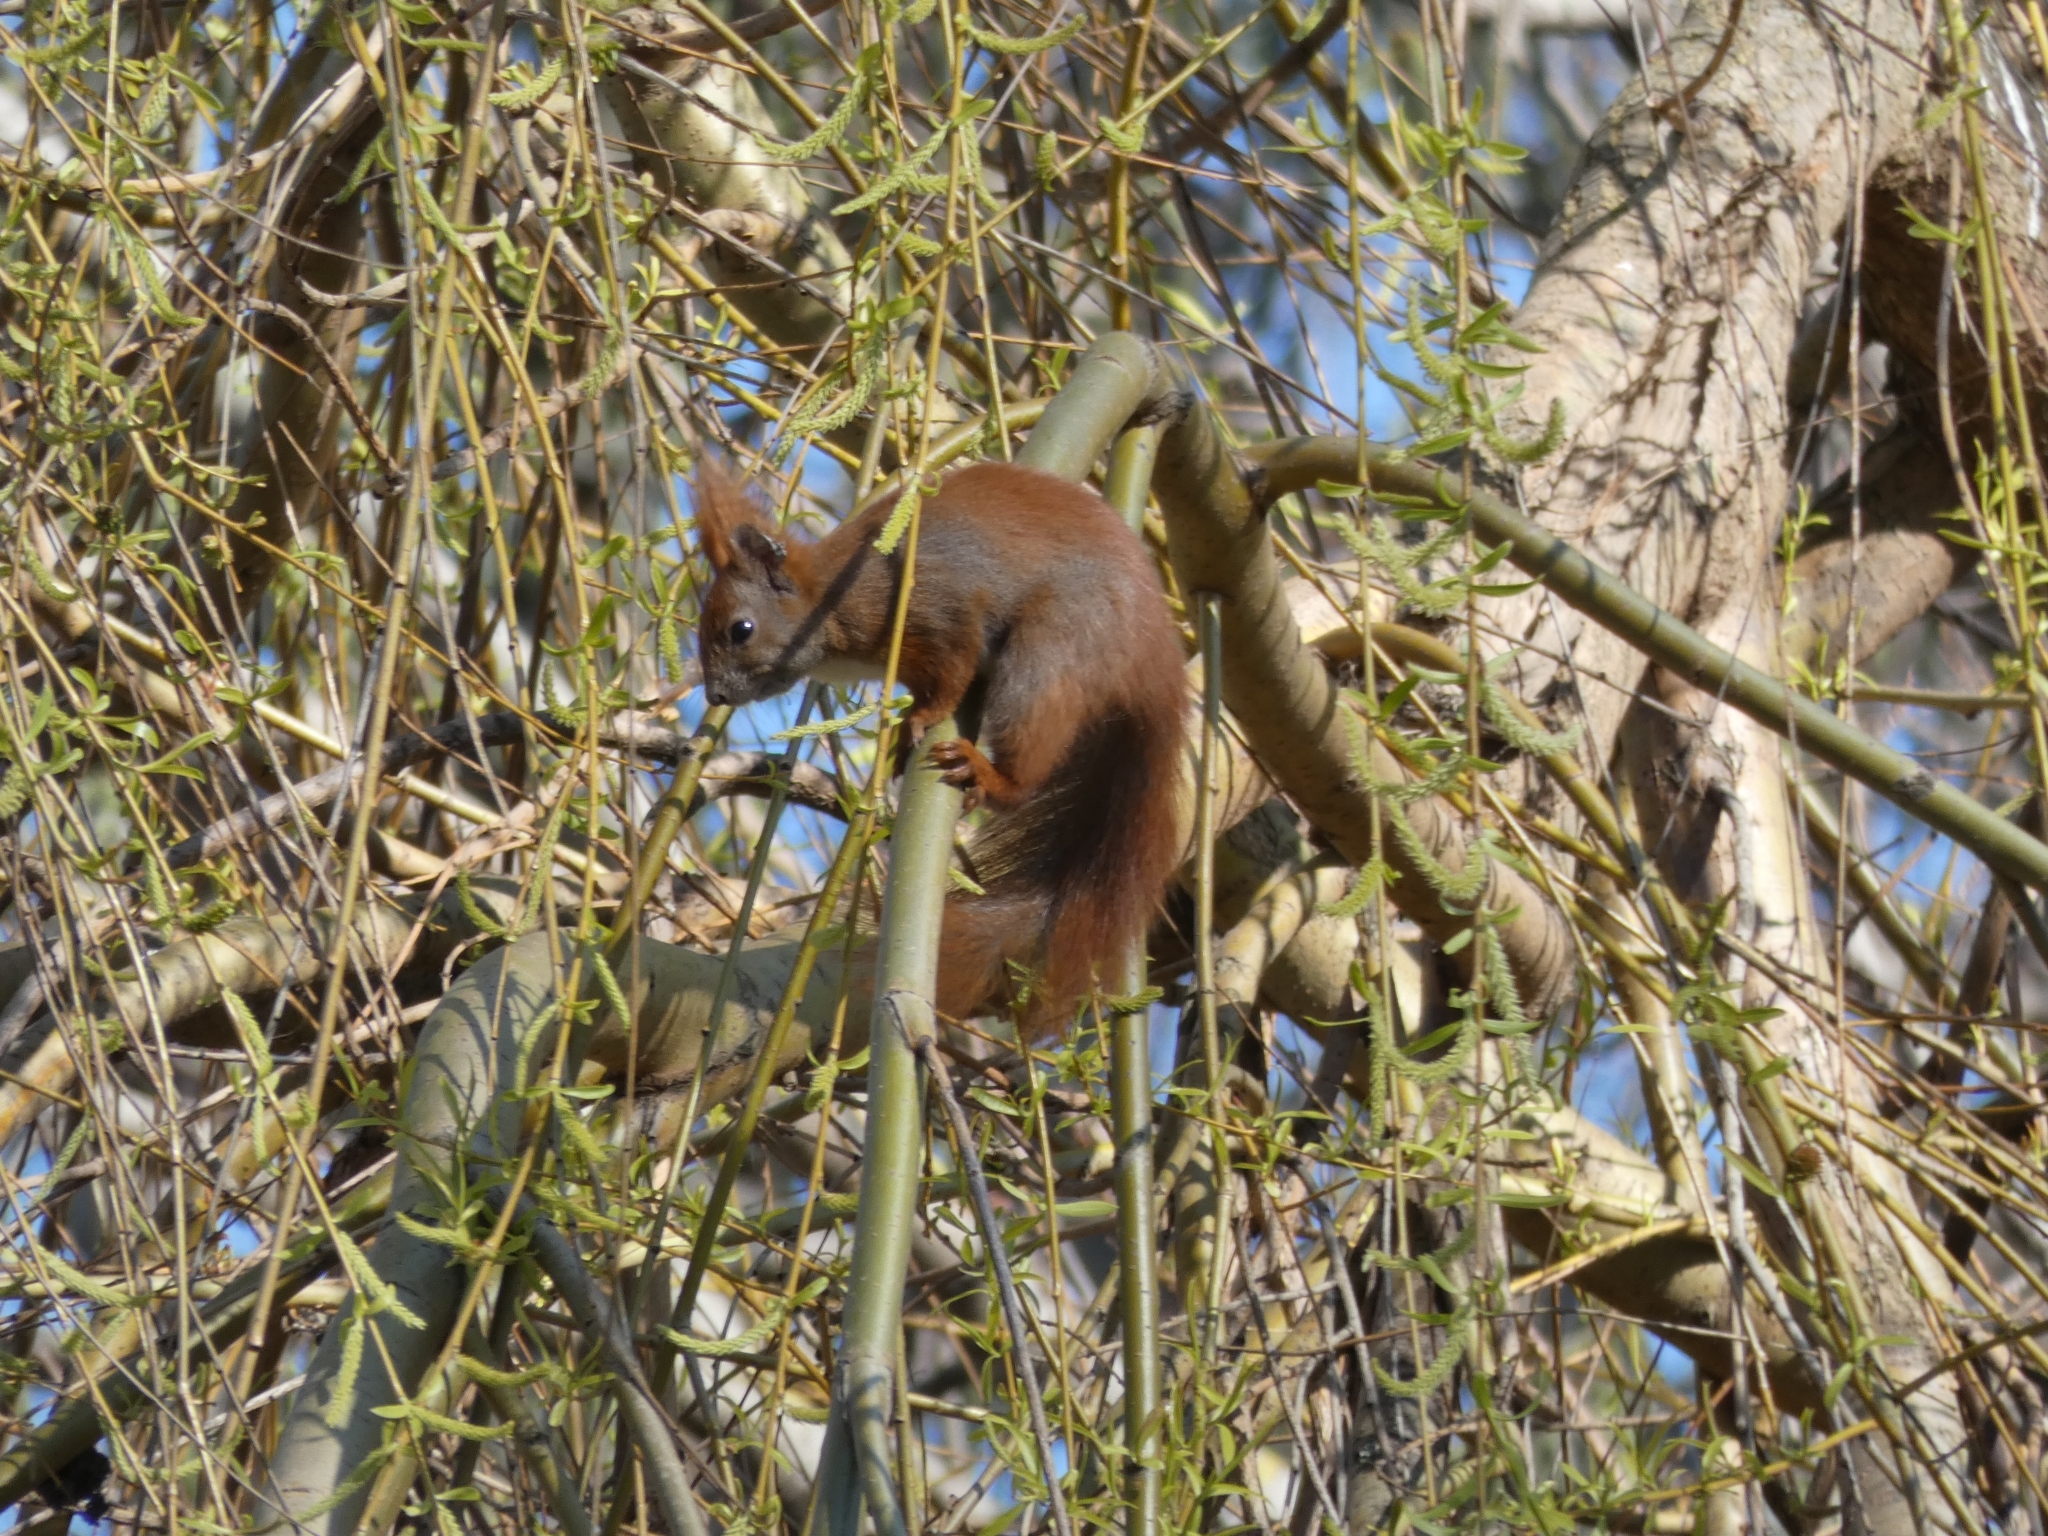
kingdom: Animalia
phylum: Chordata
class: Mammalia
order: Rodentia
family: Sciuridae
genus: Sciurus
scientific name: Sciurus vulgaris
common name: Eurasian red squirrel
